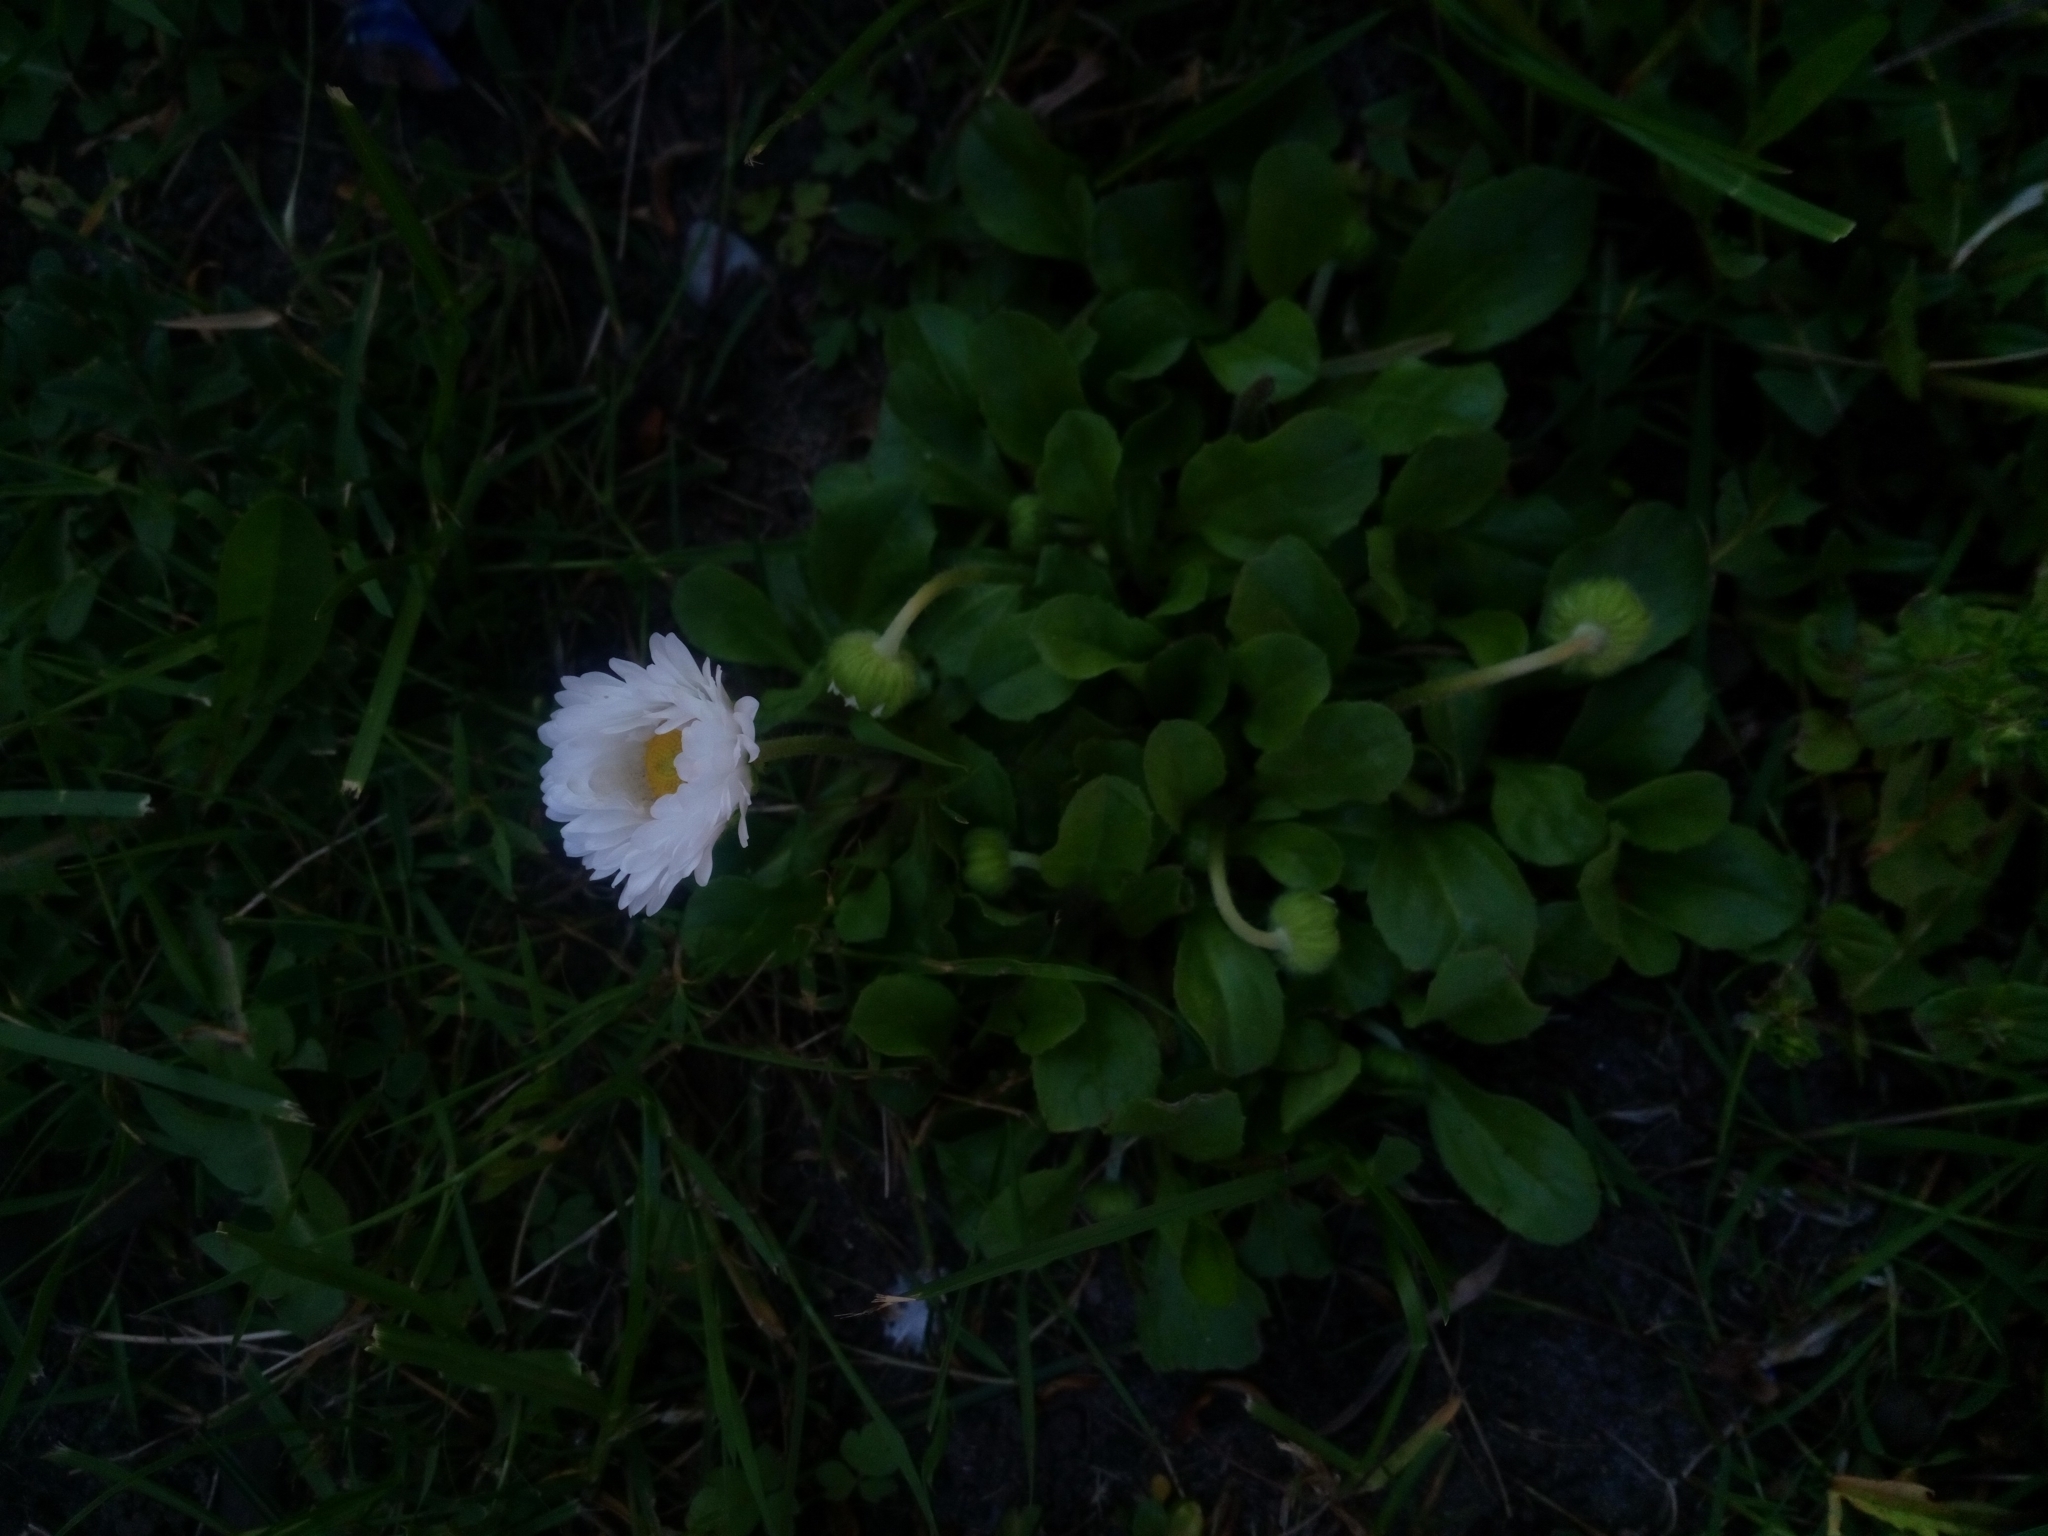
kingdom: Plantae
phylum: Tracheophyta
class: Magnoliopsida
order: Asterales
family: Asteraceae
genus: Bellis
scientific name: Bellis perennis
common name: Lawndaisy
